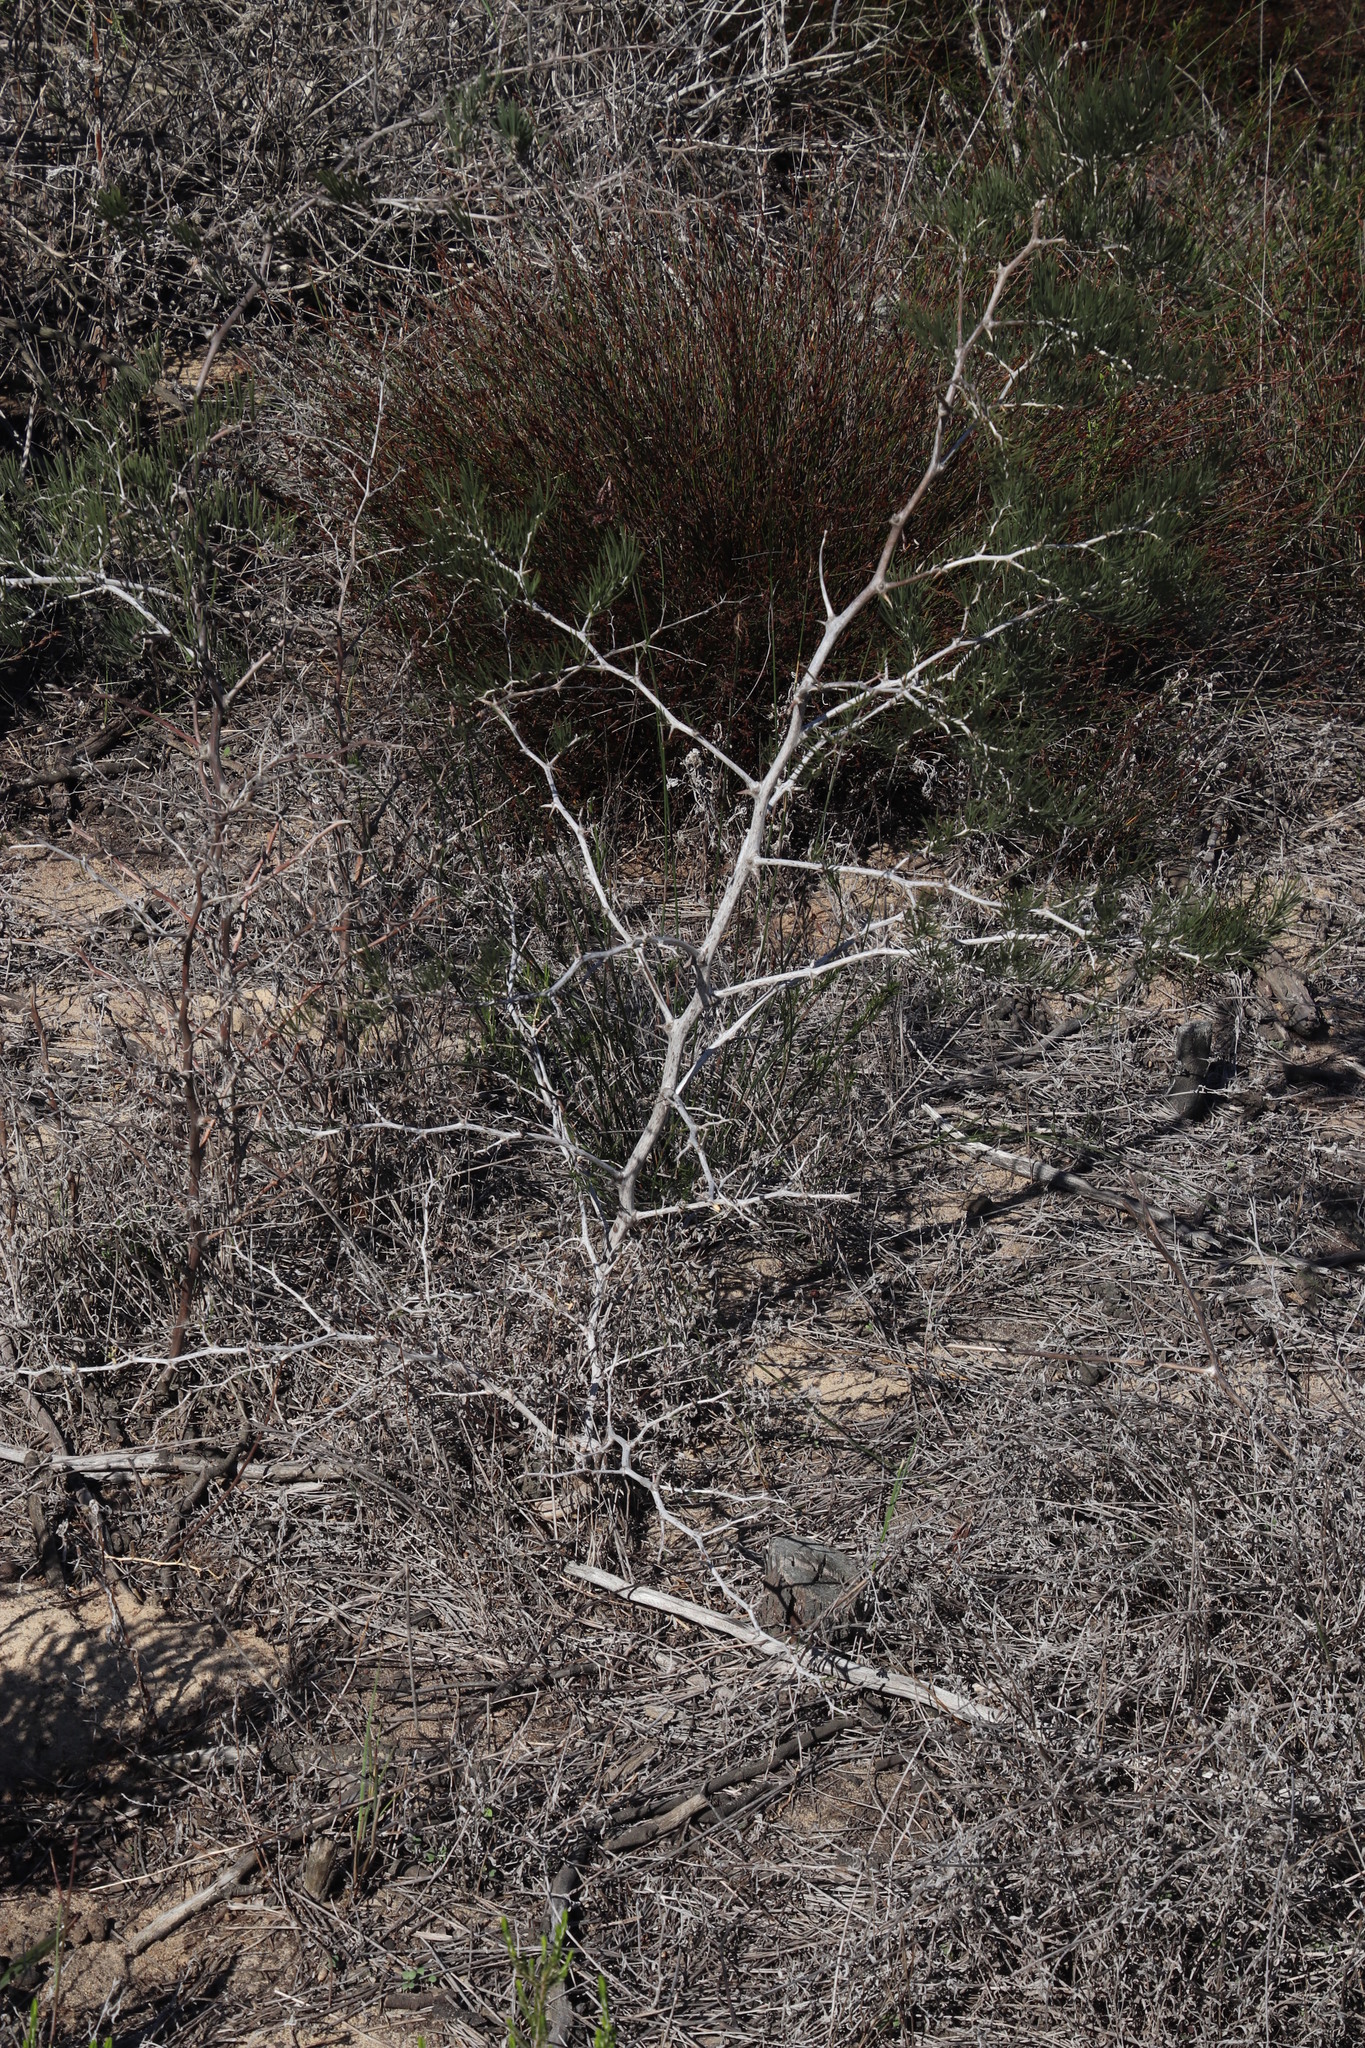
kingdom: Plantae
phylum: Tracheophyta
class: Liliopsida
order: Asparagales
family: Asparagaceae
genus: Asparagus
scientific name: Asparagus lignosus
